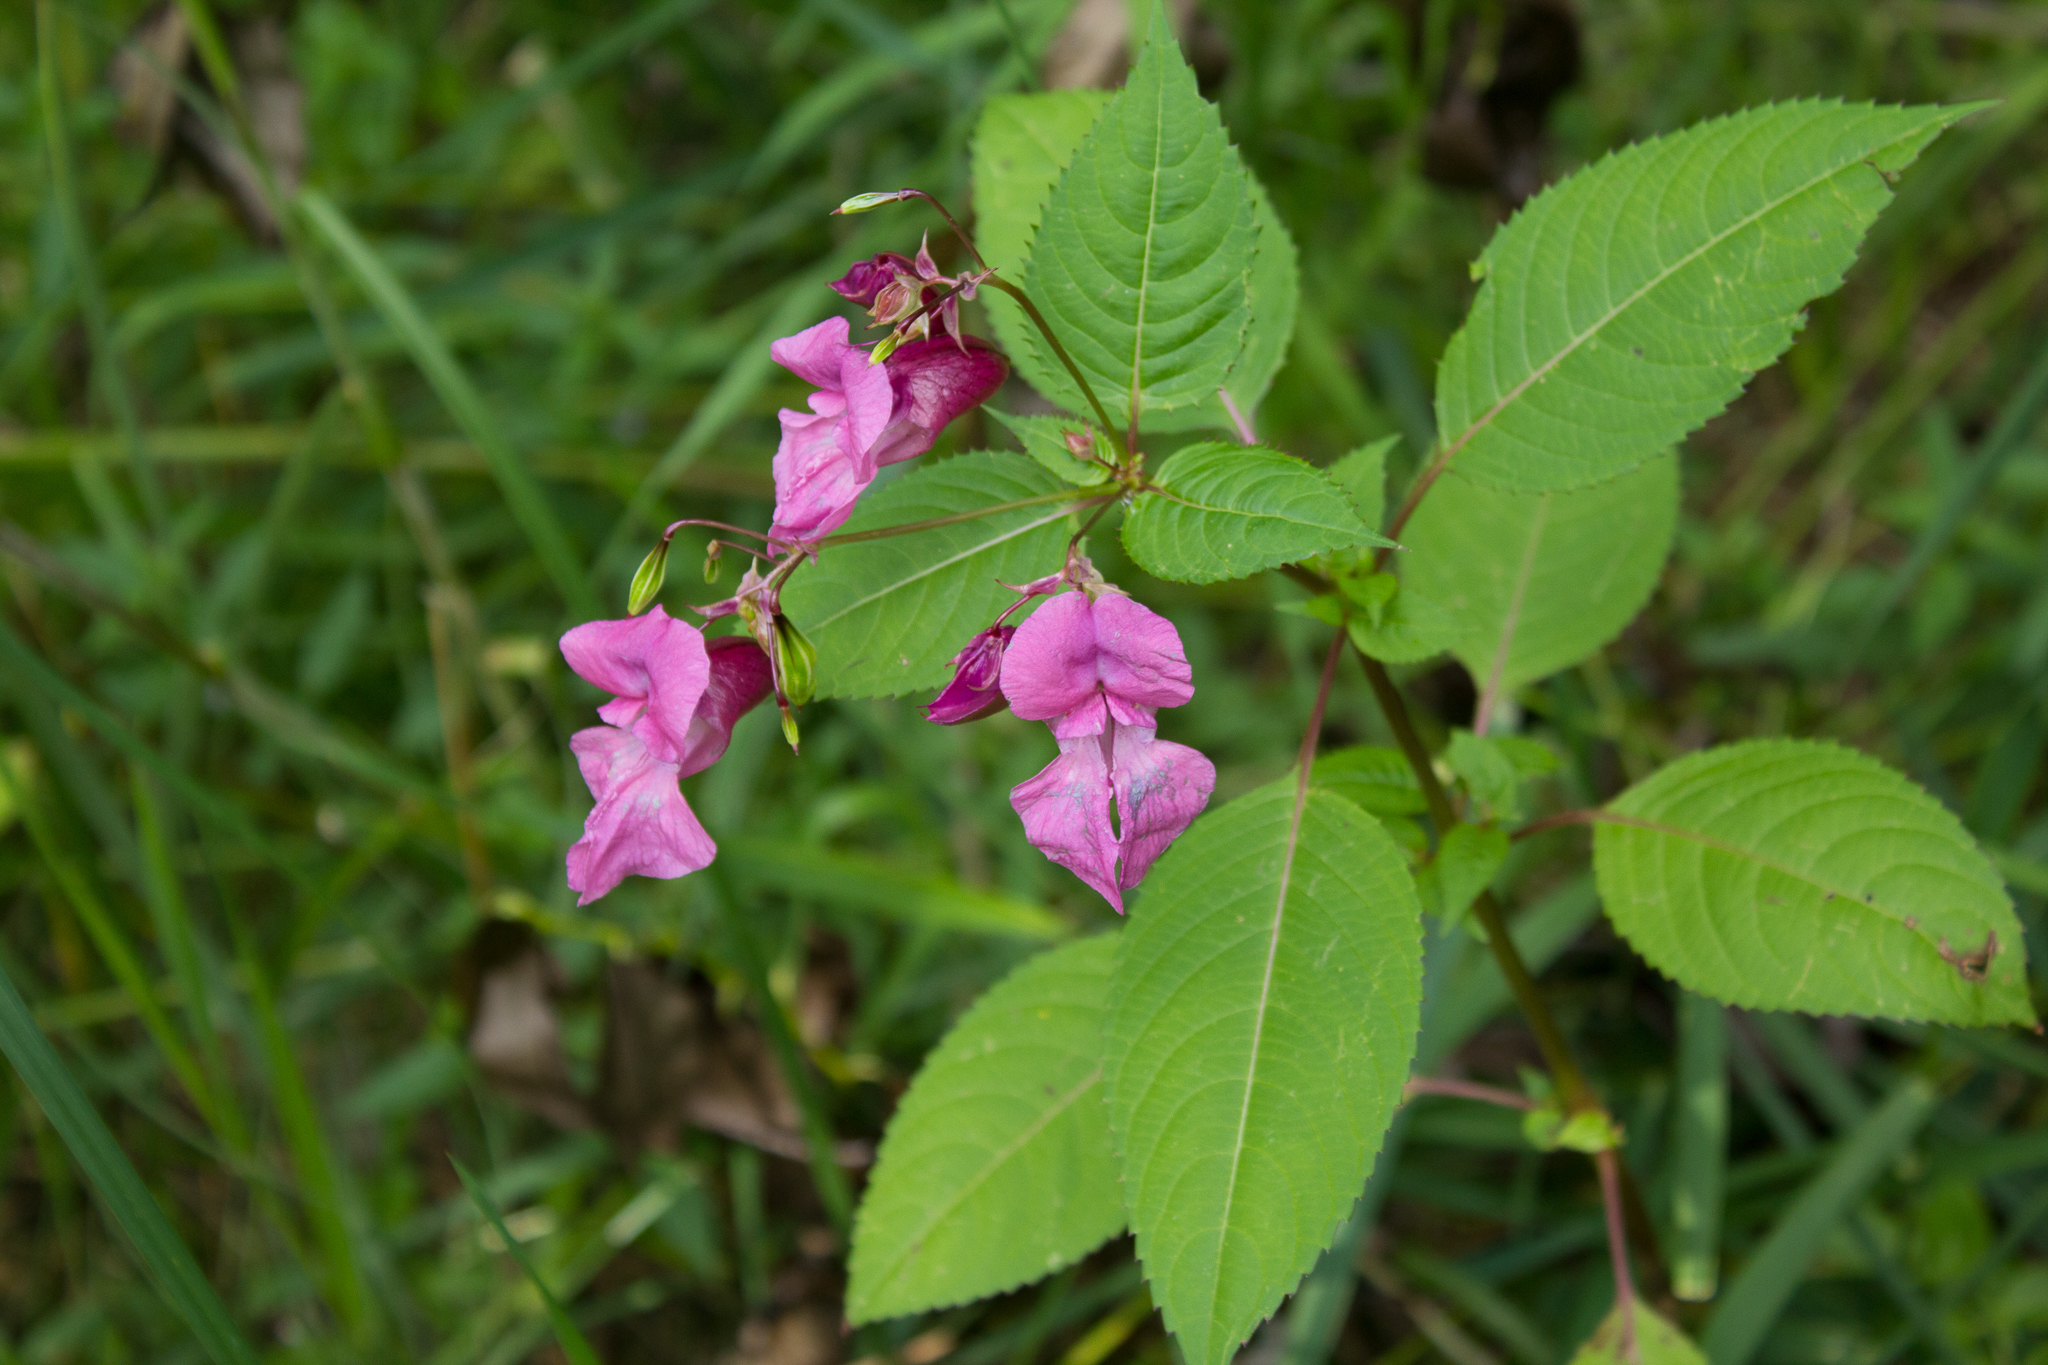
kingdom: Plantae
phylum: Tracheophyta
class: Magnoliopsida
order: Ericales
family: Balsaminaceae
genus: Impatiens
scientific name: Impatiens glandulifera
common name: Himalayan balsam
